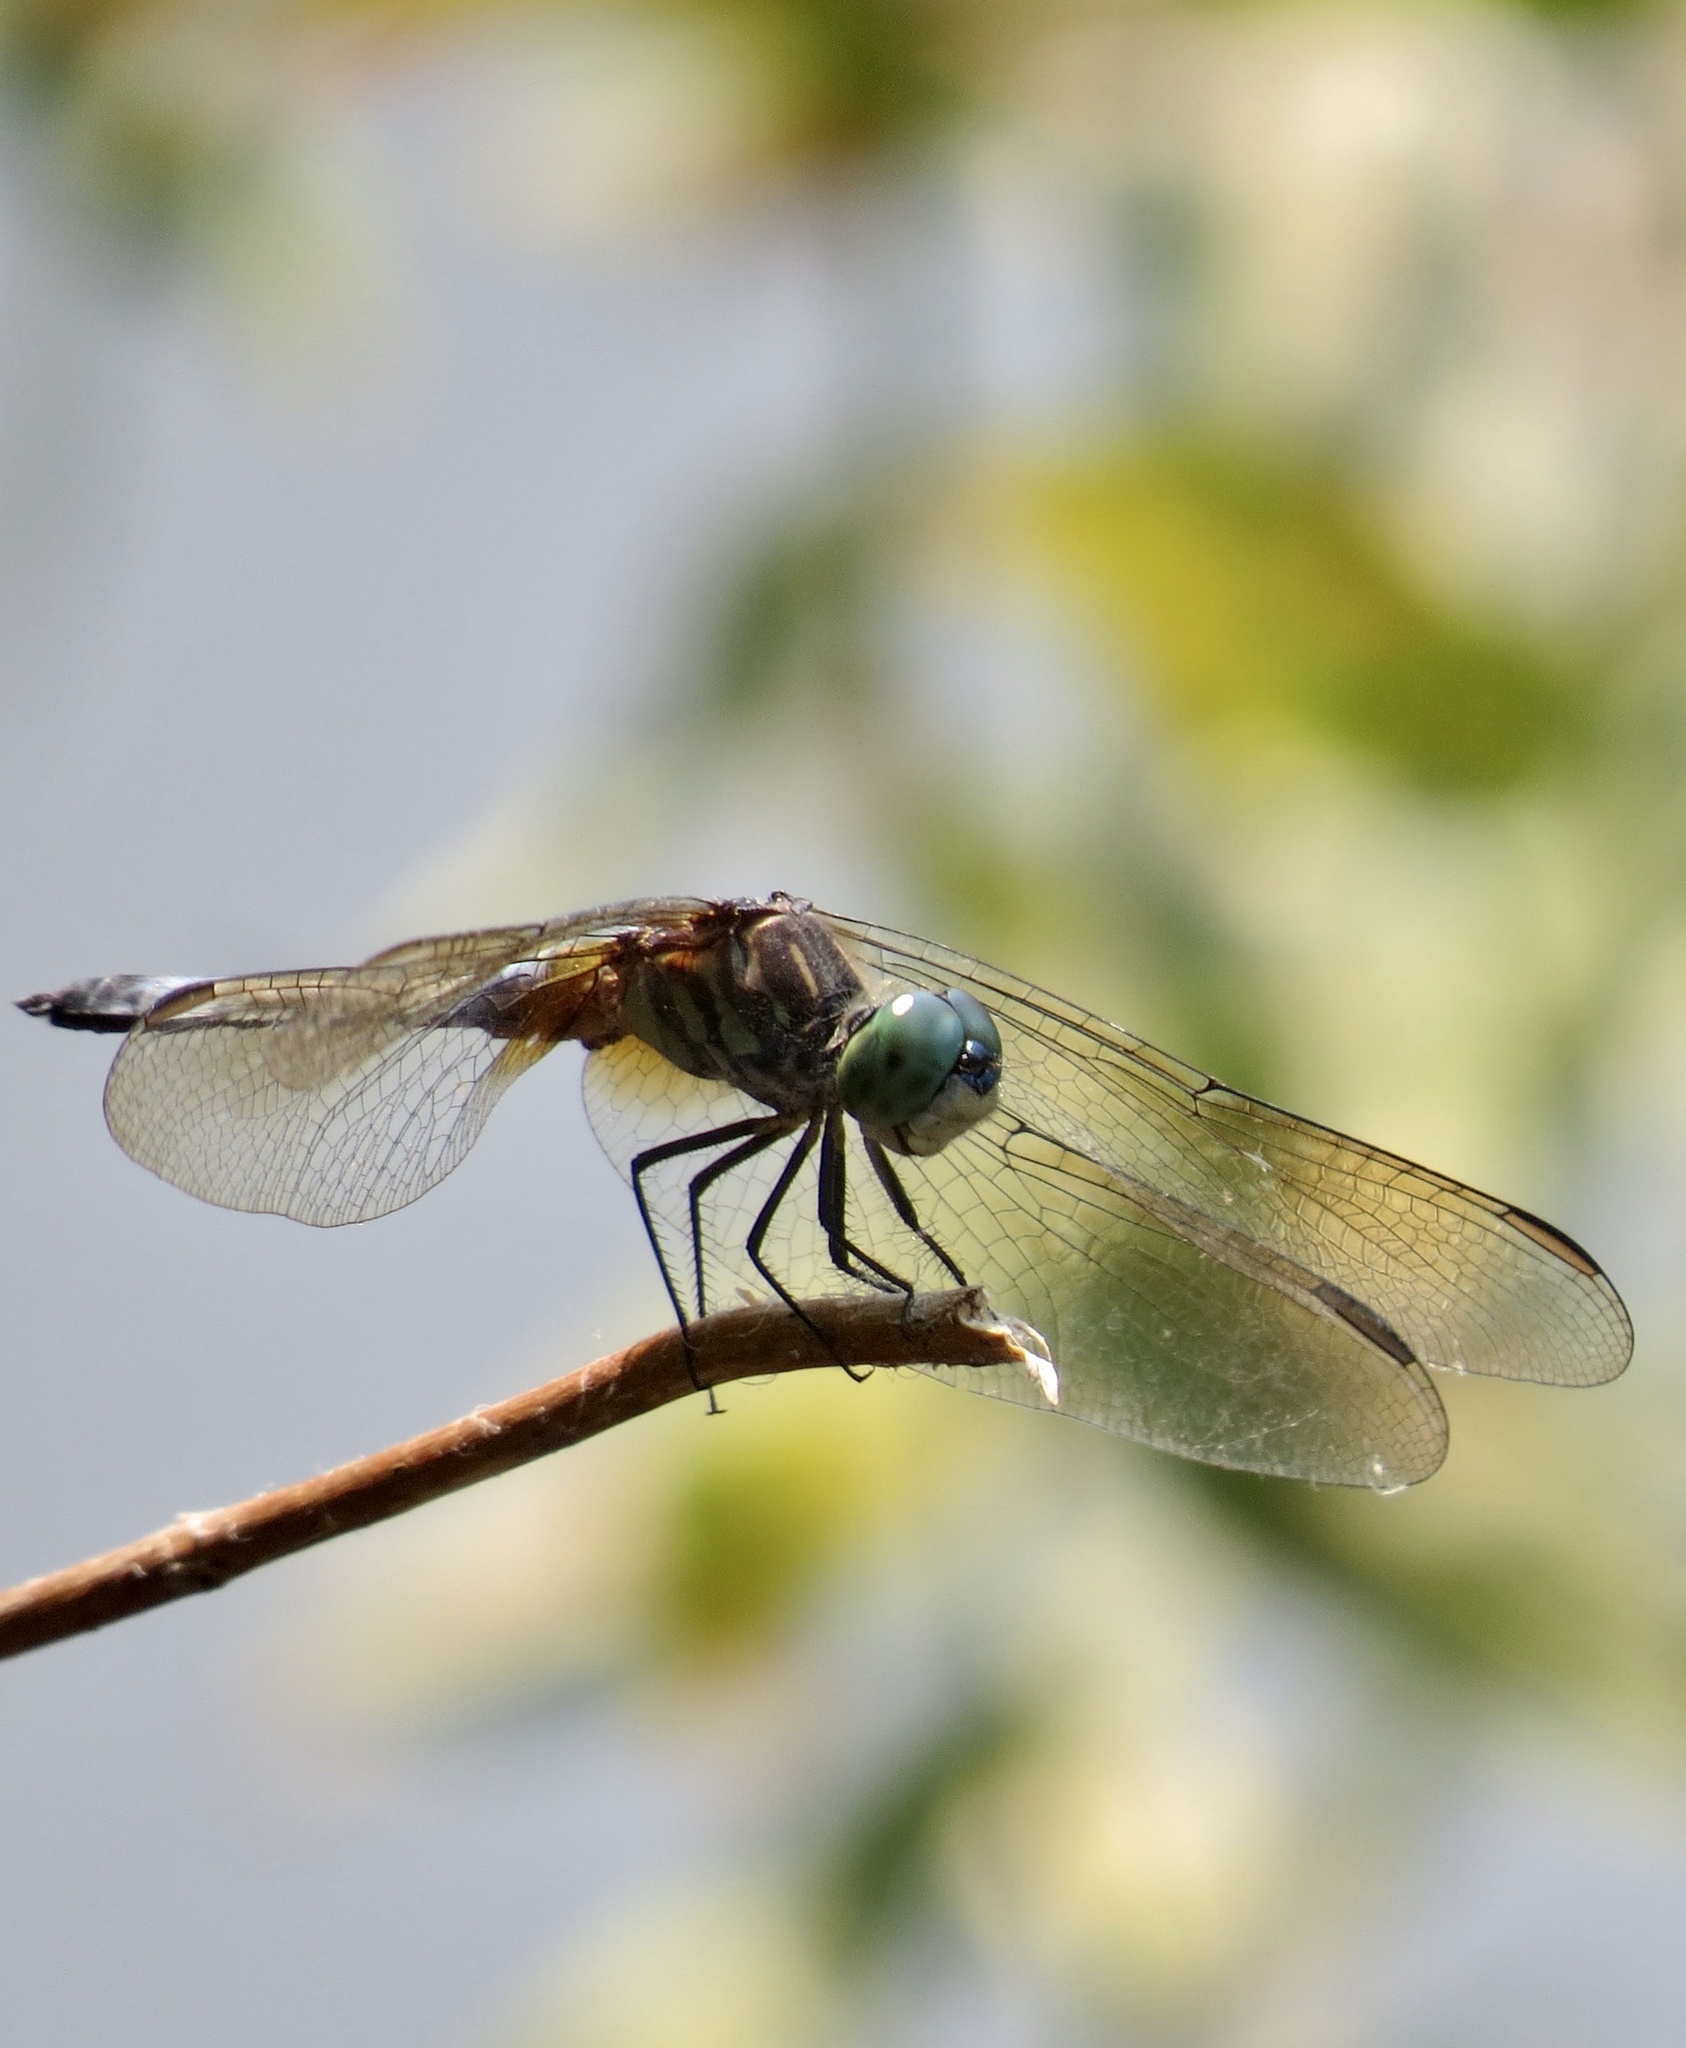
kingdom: Animalia
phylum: Arthropoda
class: Insecta
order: Odonata
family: Libellulidae
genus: Pachydiplax
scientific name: Pachydiplax longipennis
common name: Blue dasher
